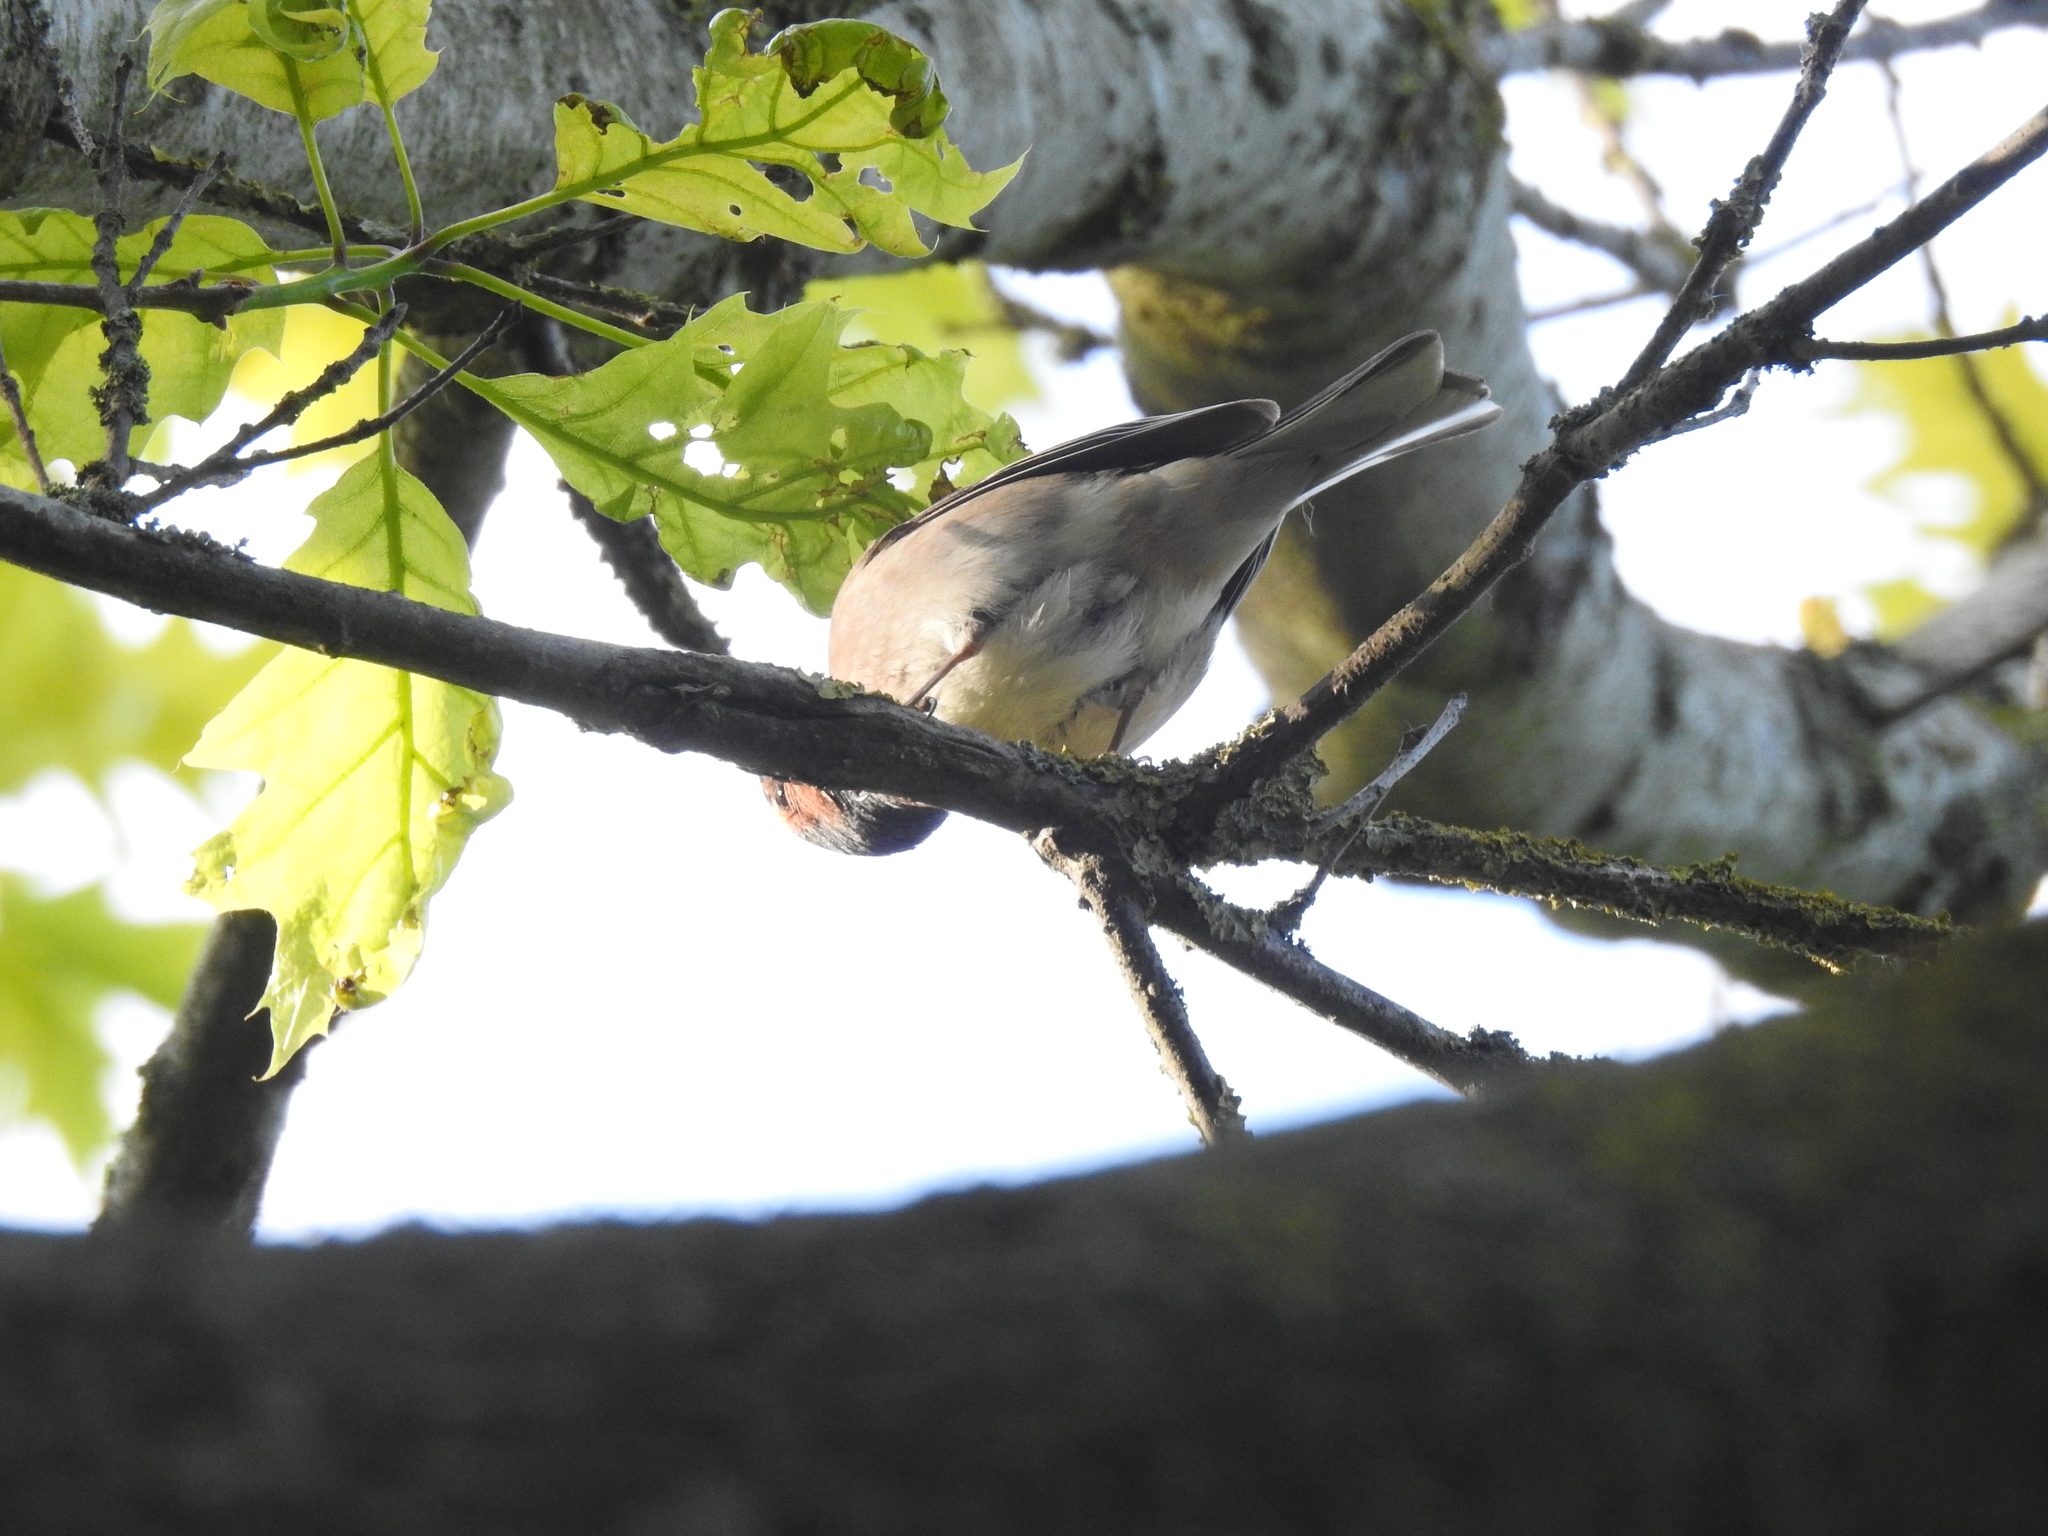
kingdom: Animalia
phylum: Chordata
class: Aves
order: Passeriformes
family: Fringillidae
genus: Fringilla
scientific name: Fringilla coelebs
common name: Common chaffinch
